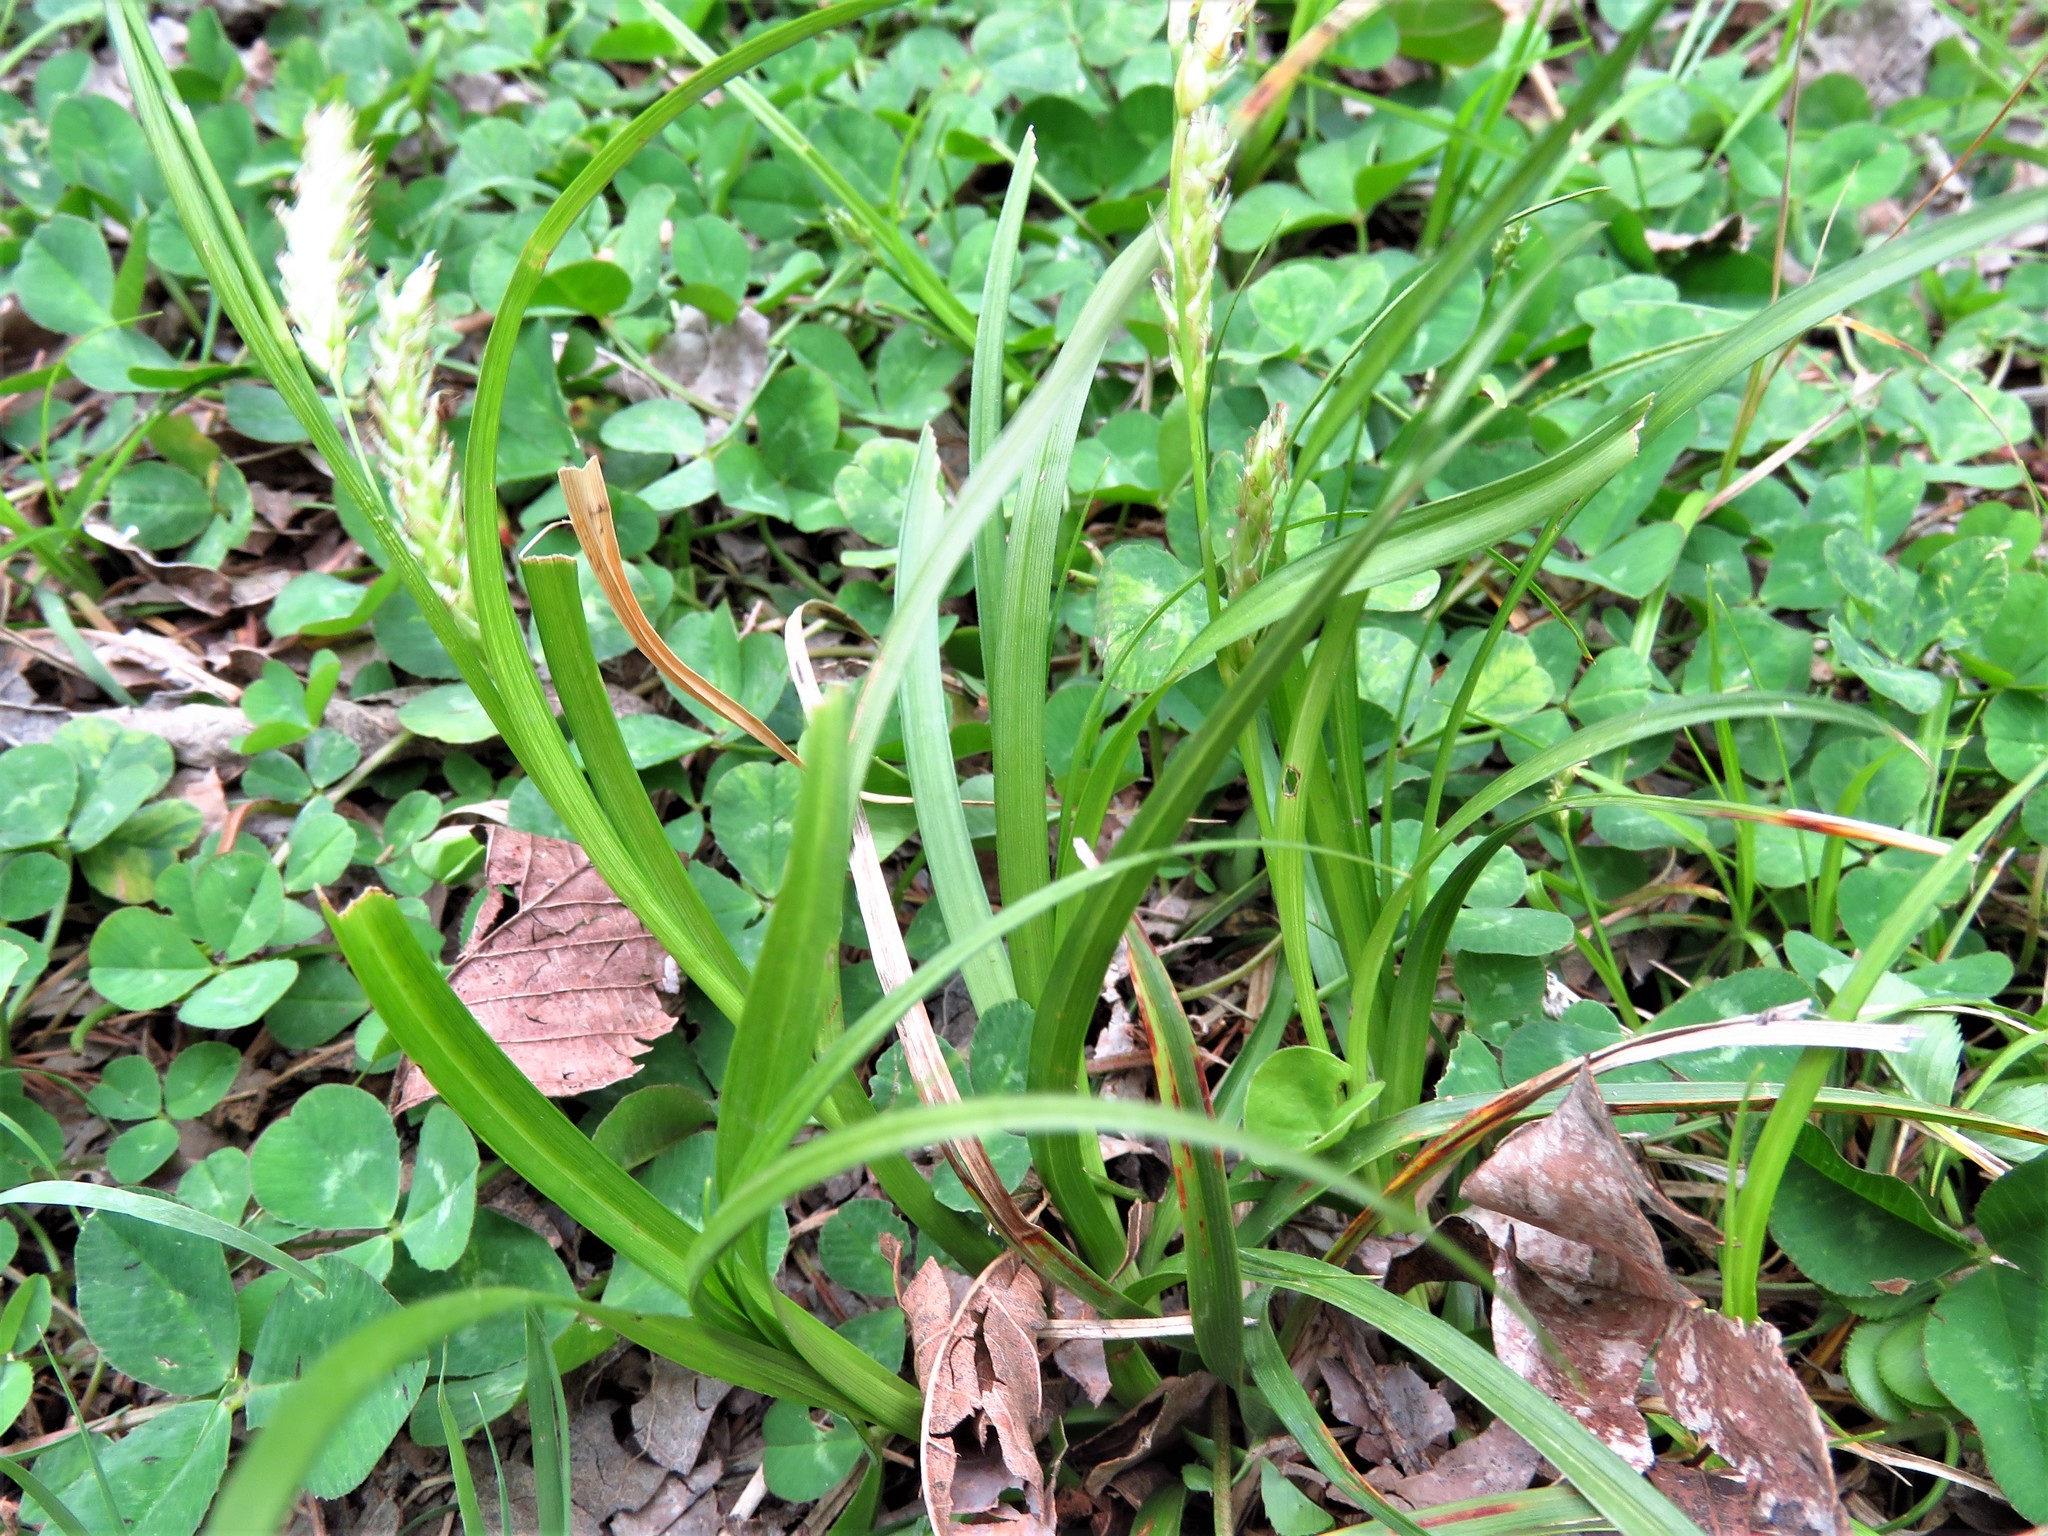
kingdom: Plantae
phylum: Tracheophyta
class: Liliopsida
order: Poales
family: Cyperaceae
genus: Carex
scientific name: Carex cherokeensis
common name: Cherokee sedge
